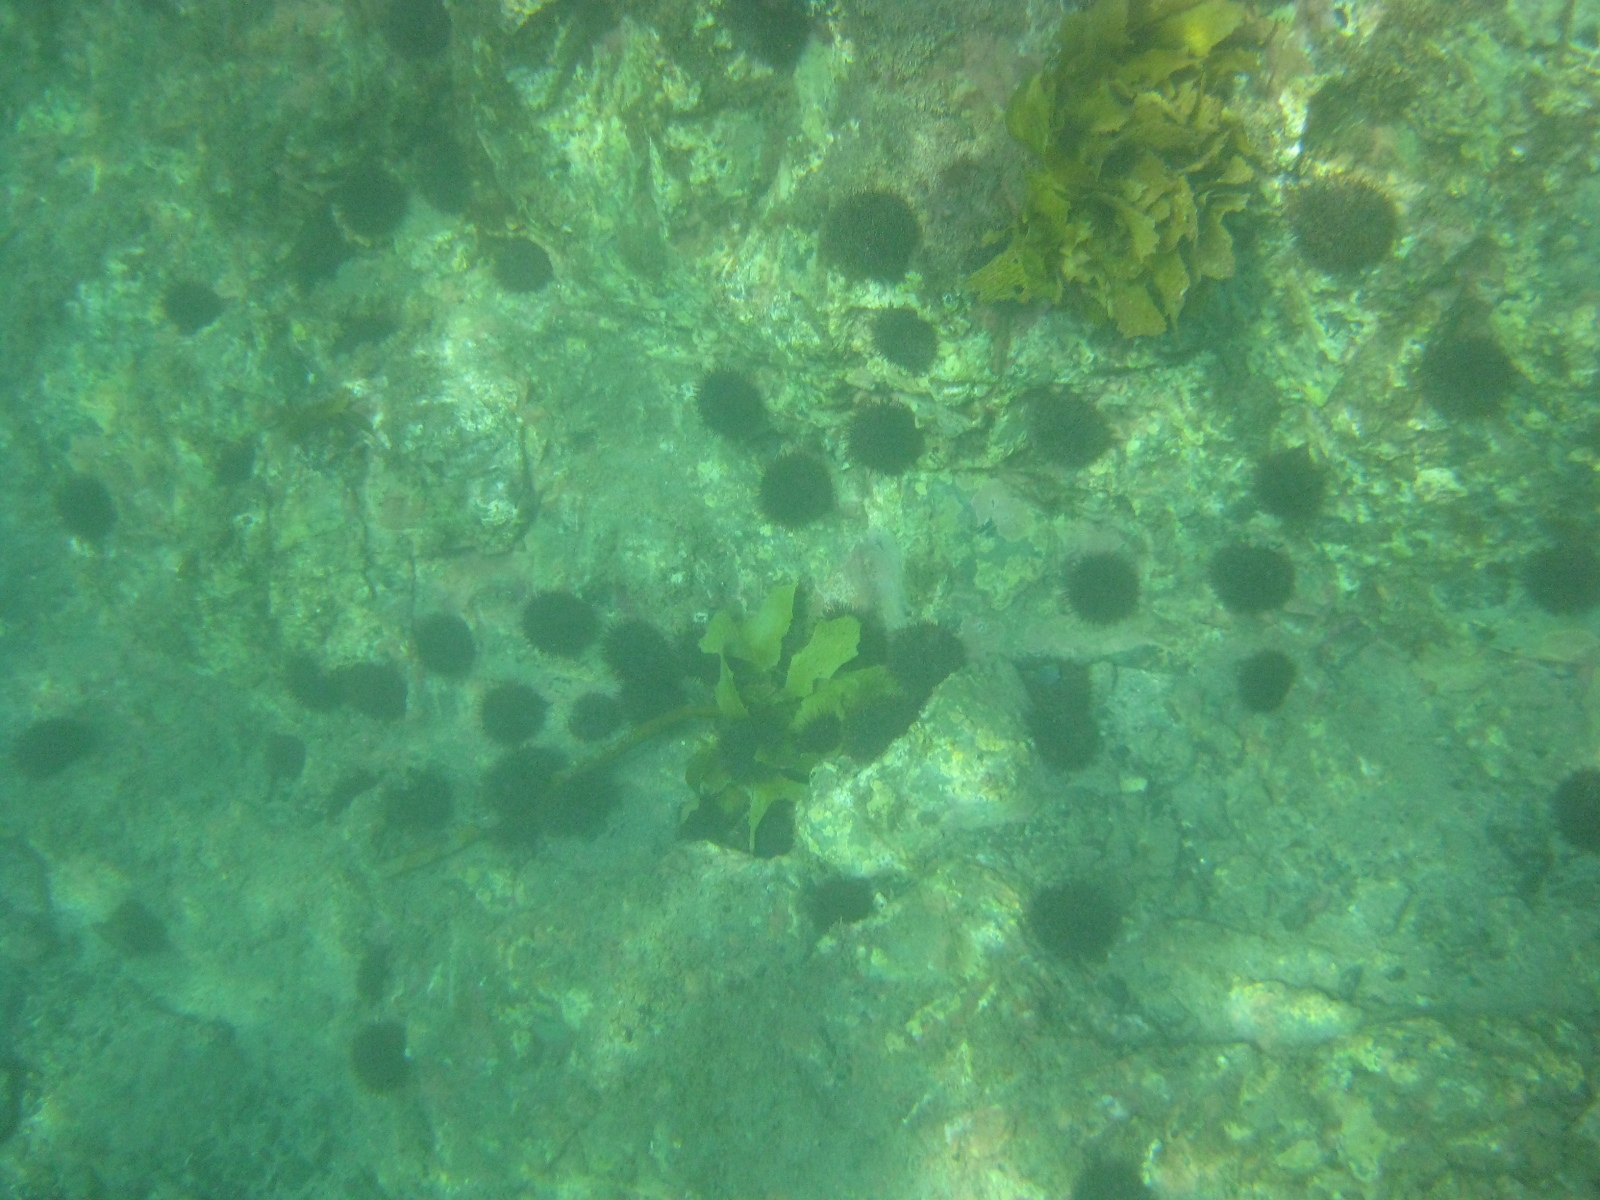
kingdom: Animalia
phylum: Echinodermata
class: Echinoidea
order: Camarodonta
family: Echinometridae
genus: Evechinus
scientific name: Evechinus chloroticus
